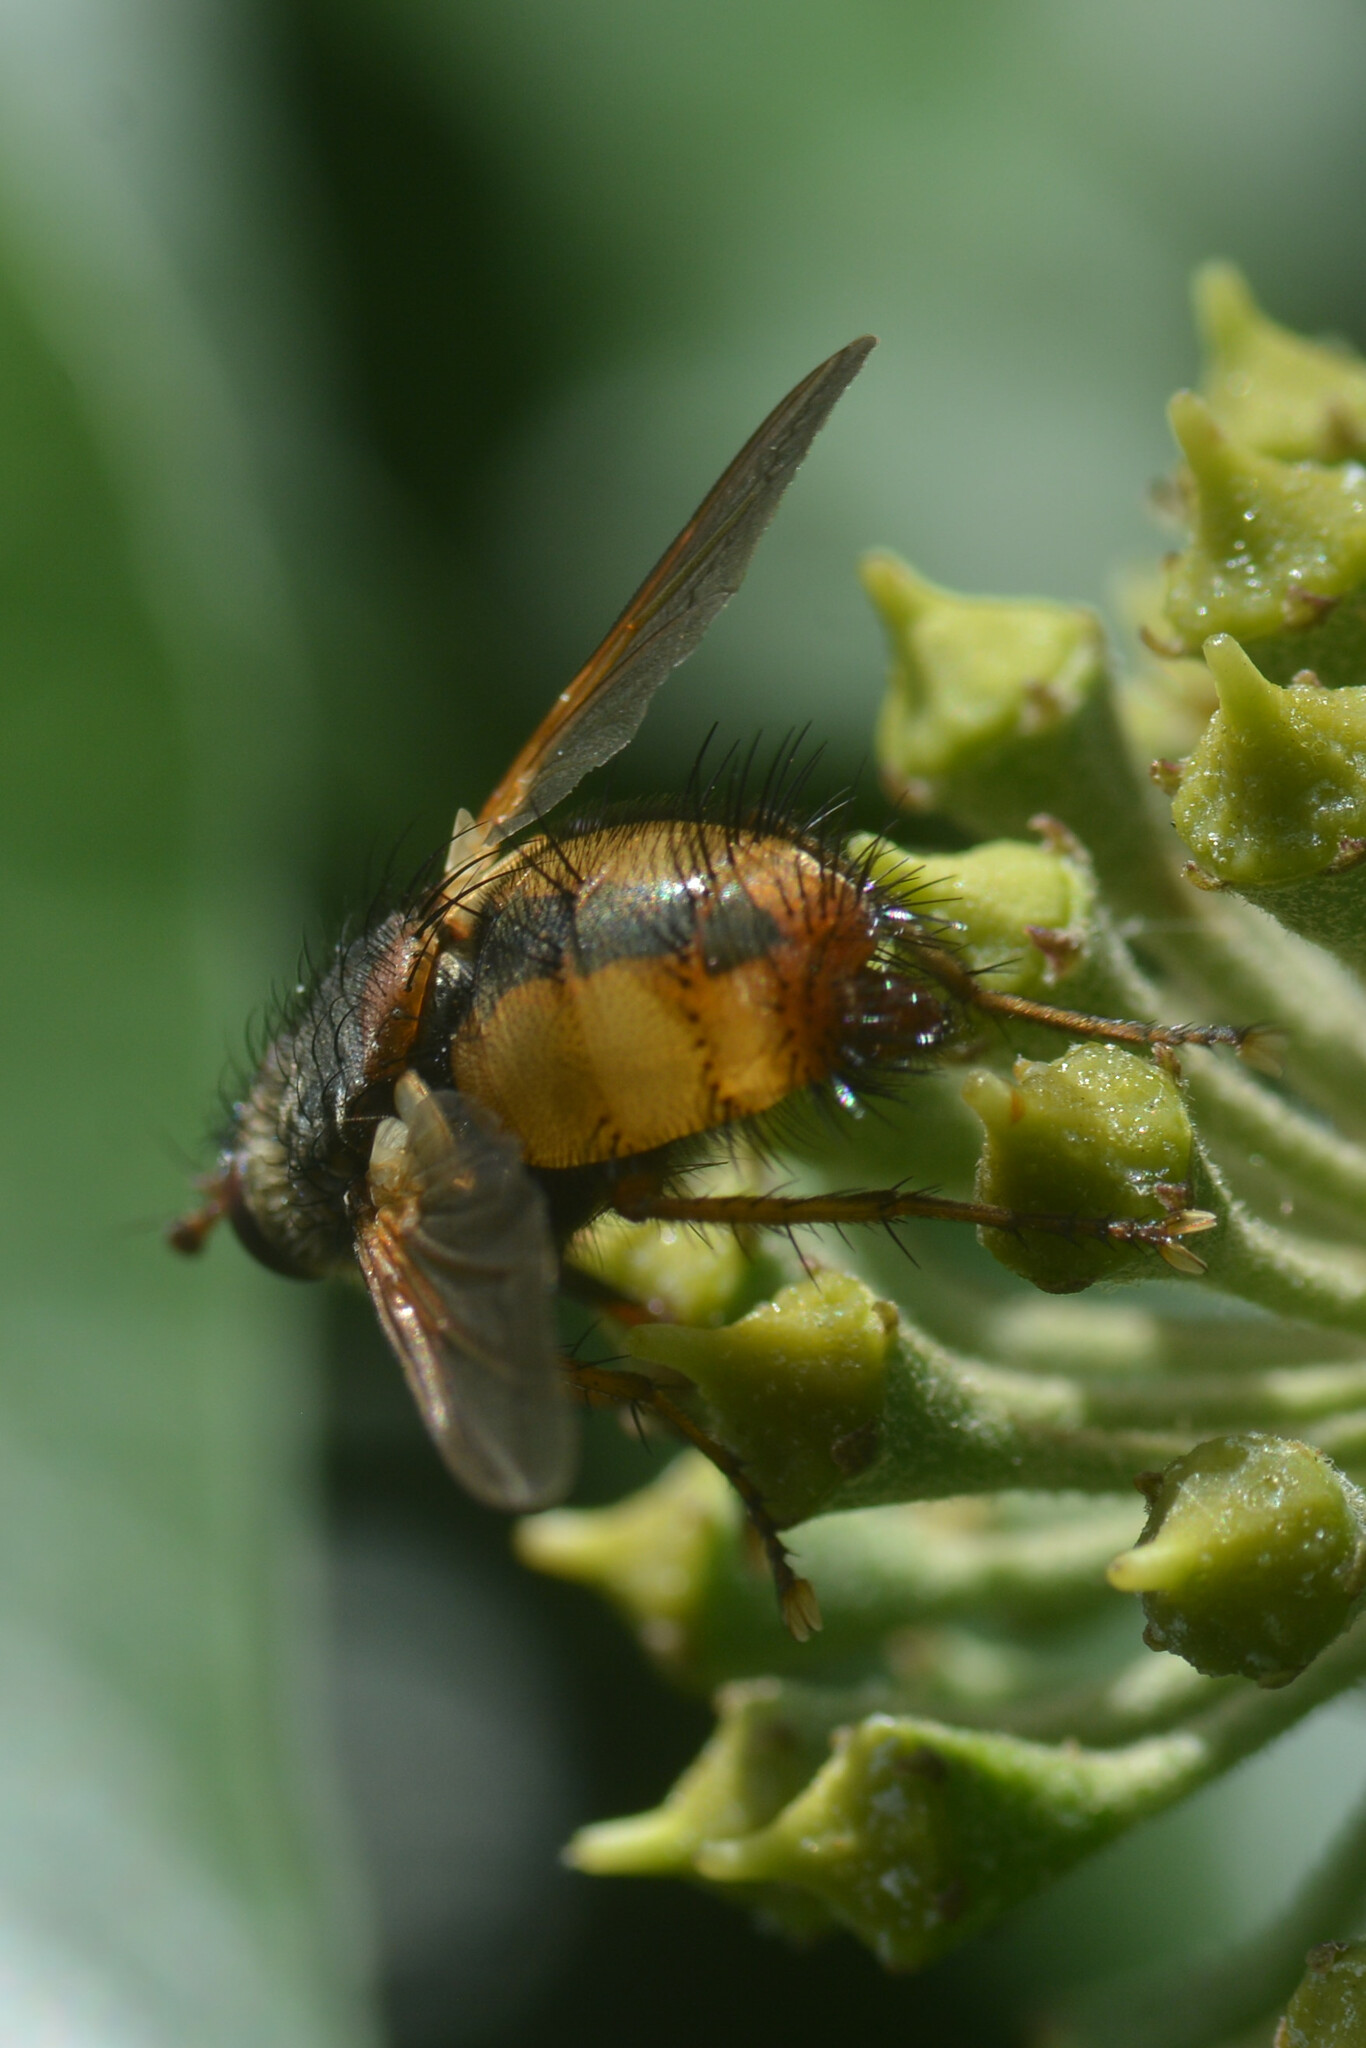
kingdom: Animalia
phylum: Arthropoda
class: Insecta
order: Diptera
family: Tachinidae
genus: Tachina
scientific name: Tachina fera
